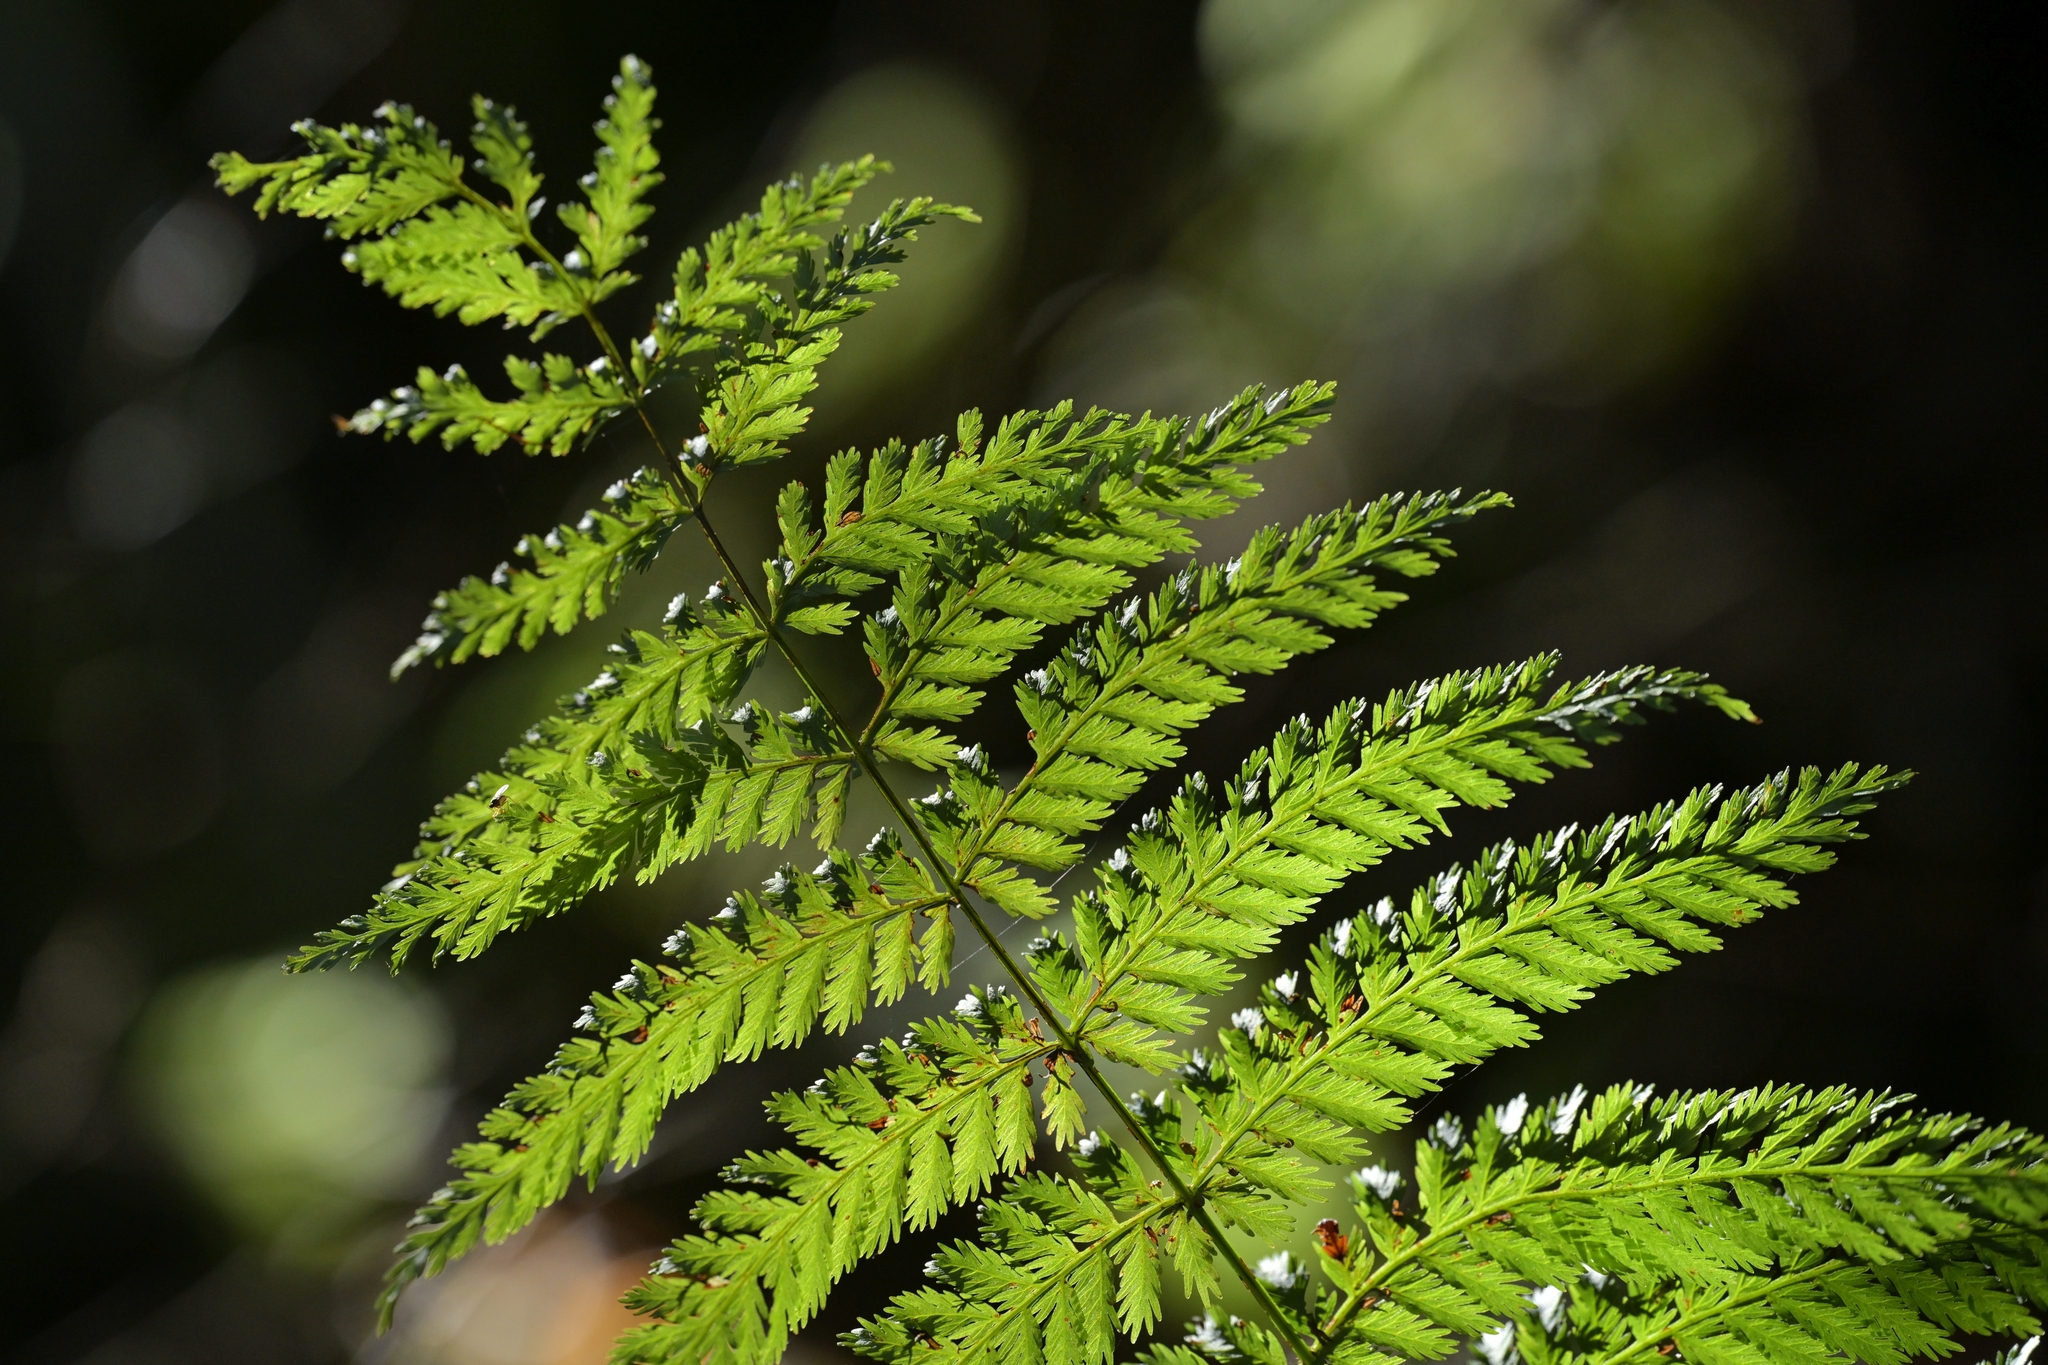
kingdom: Plantae
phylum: Tracheophyta
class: Polypodiopsida
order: Osmundales
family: Osmundaceae
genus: Leptopteris
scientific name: Leptopteris hymenophylloides
